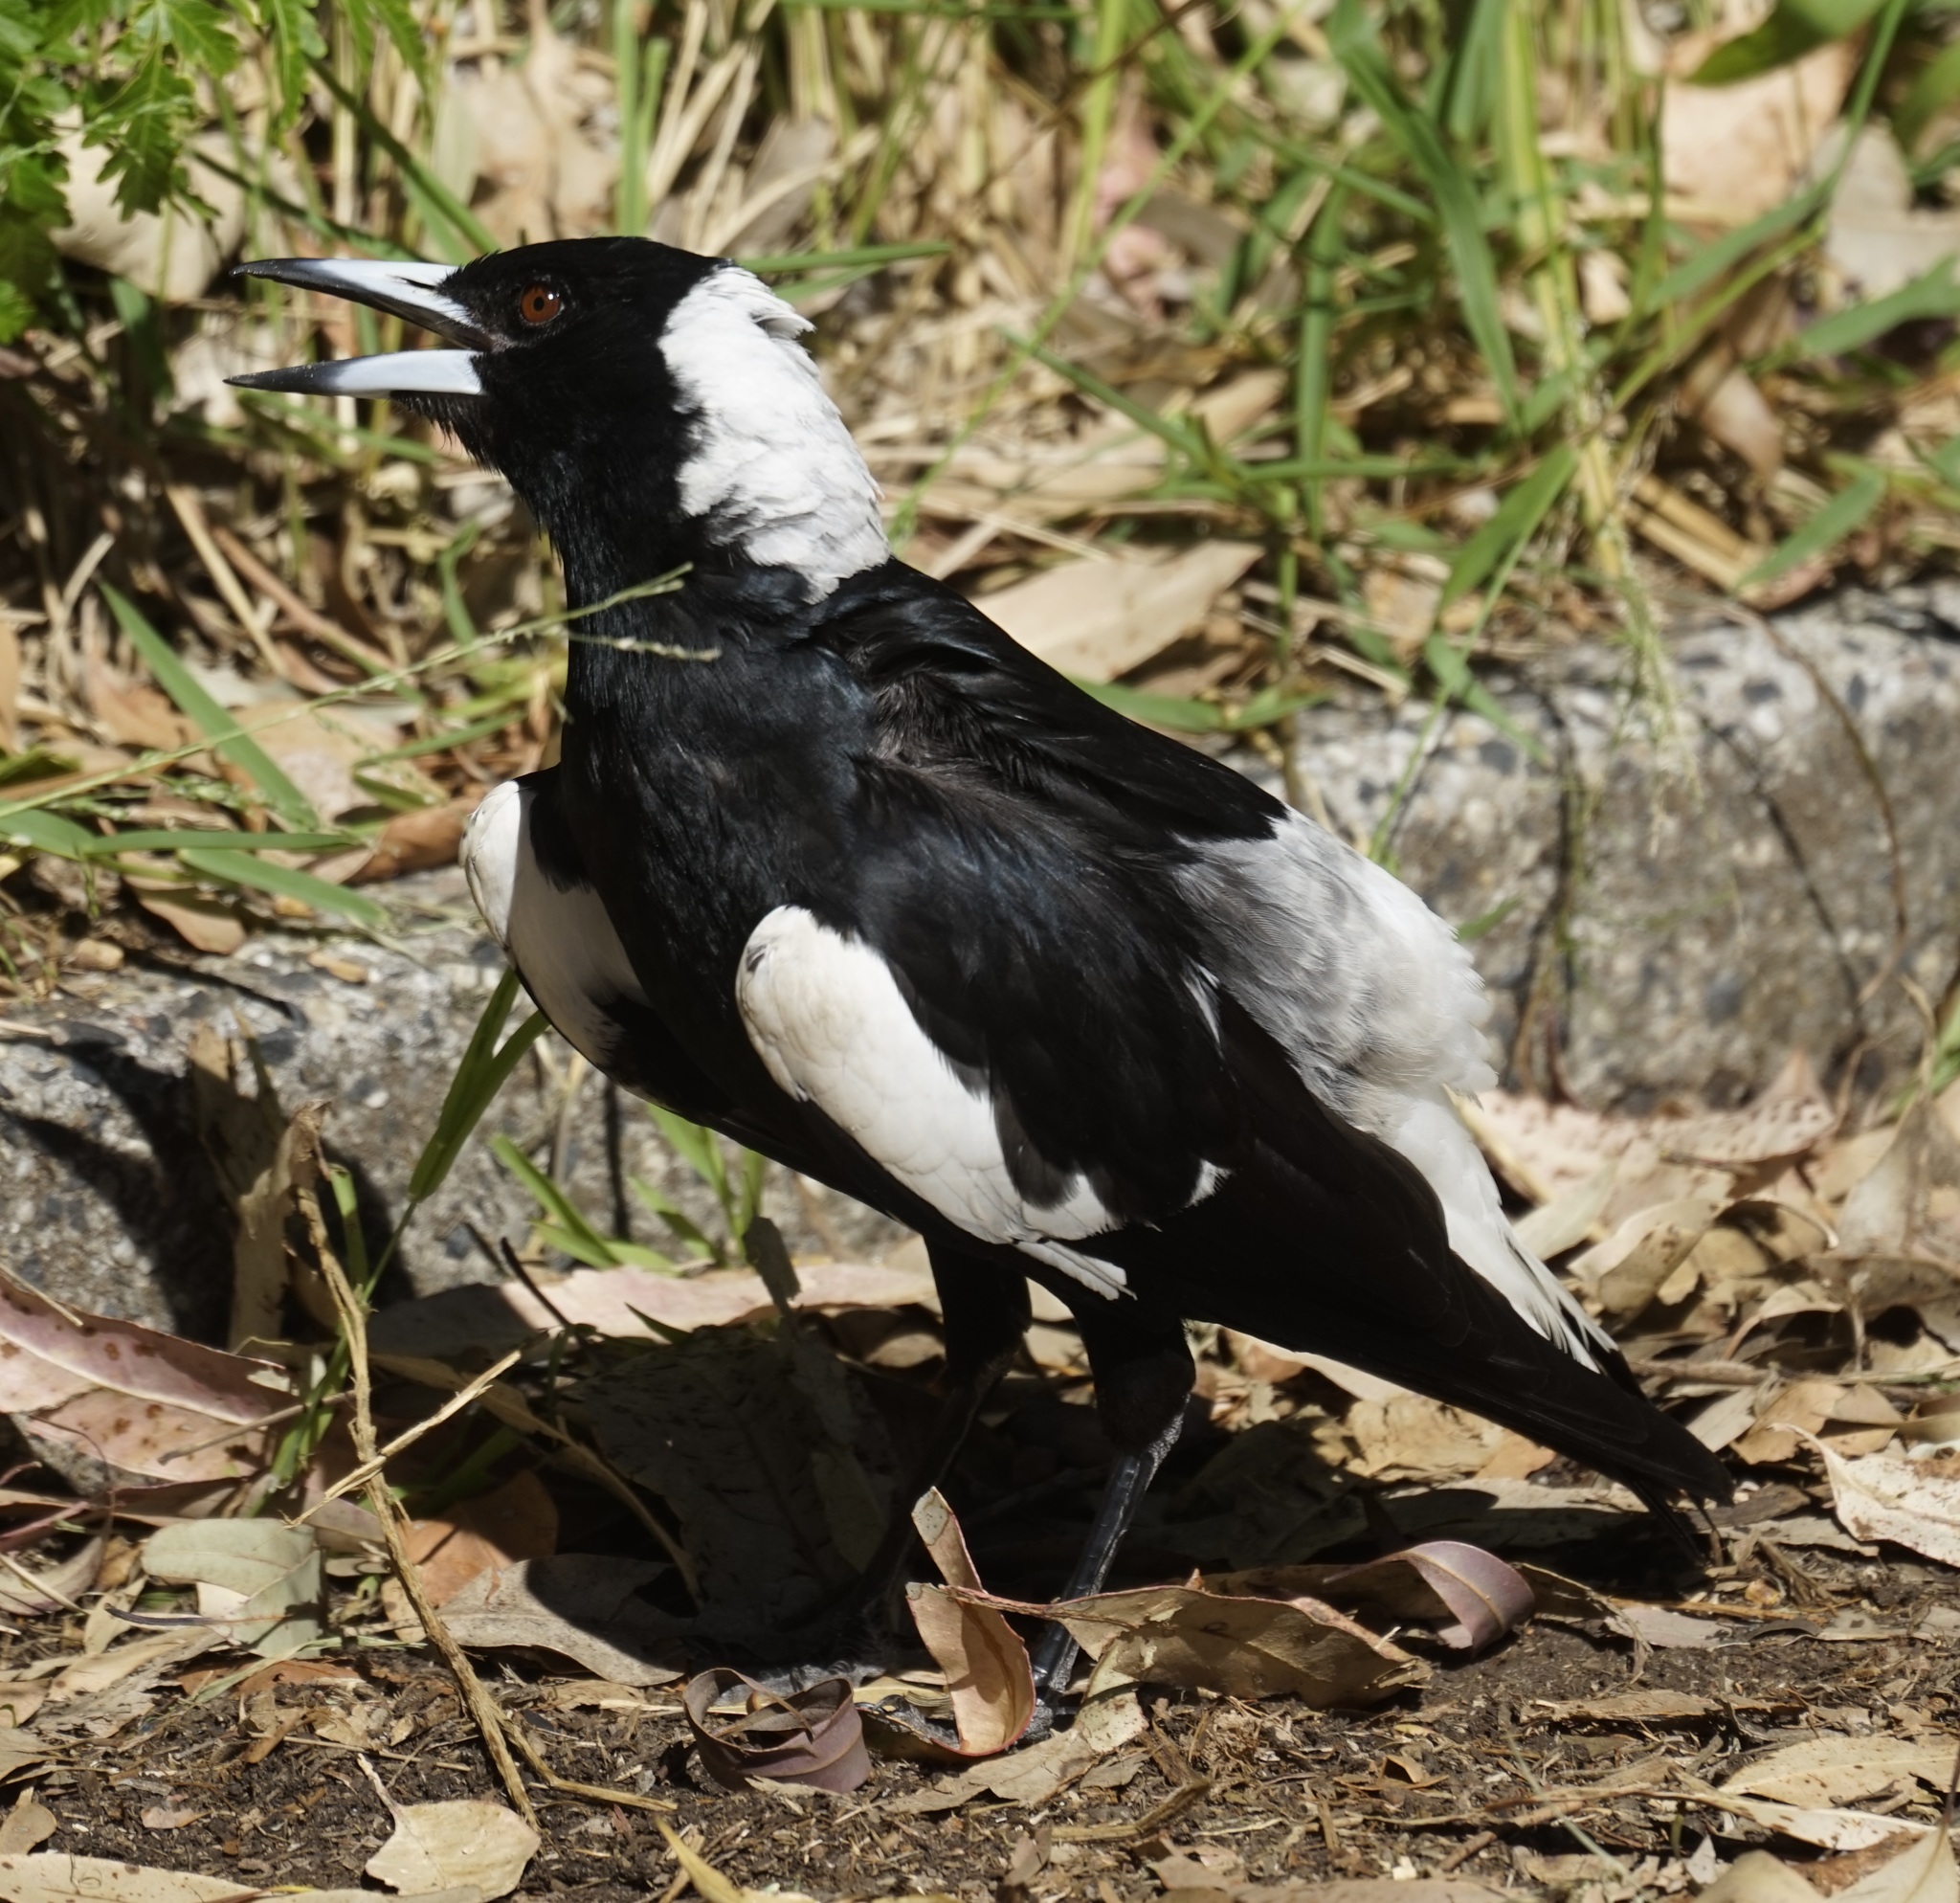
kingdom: Animalia
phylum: Chordata
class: Aves
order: Passeriformes
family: Cracticidae
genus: Gymnorhina
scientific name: Gymnorhina tibicen
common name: Australian magpie
